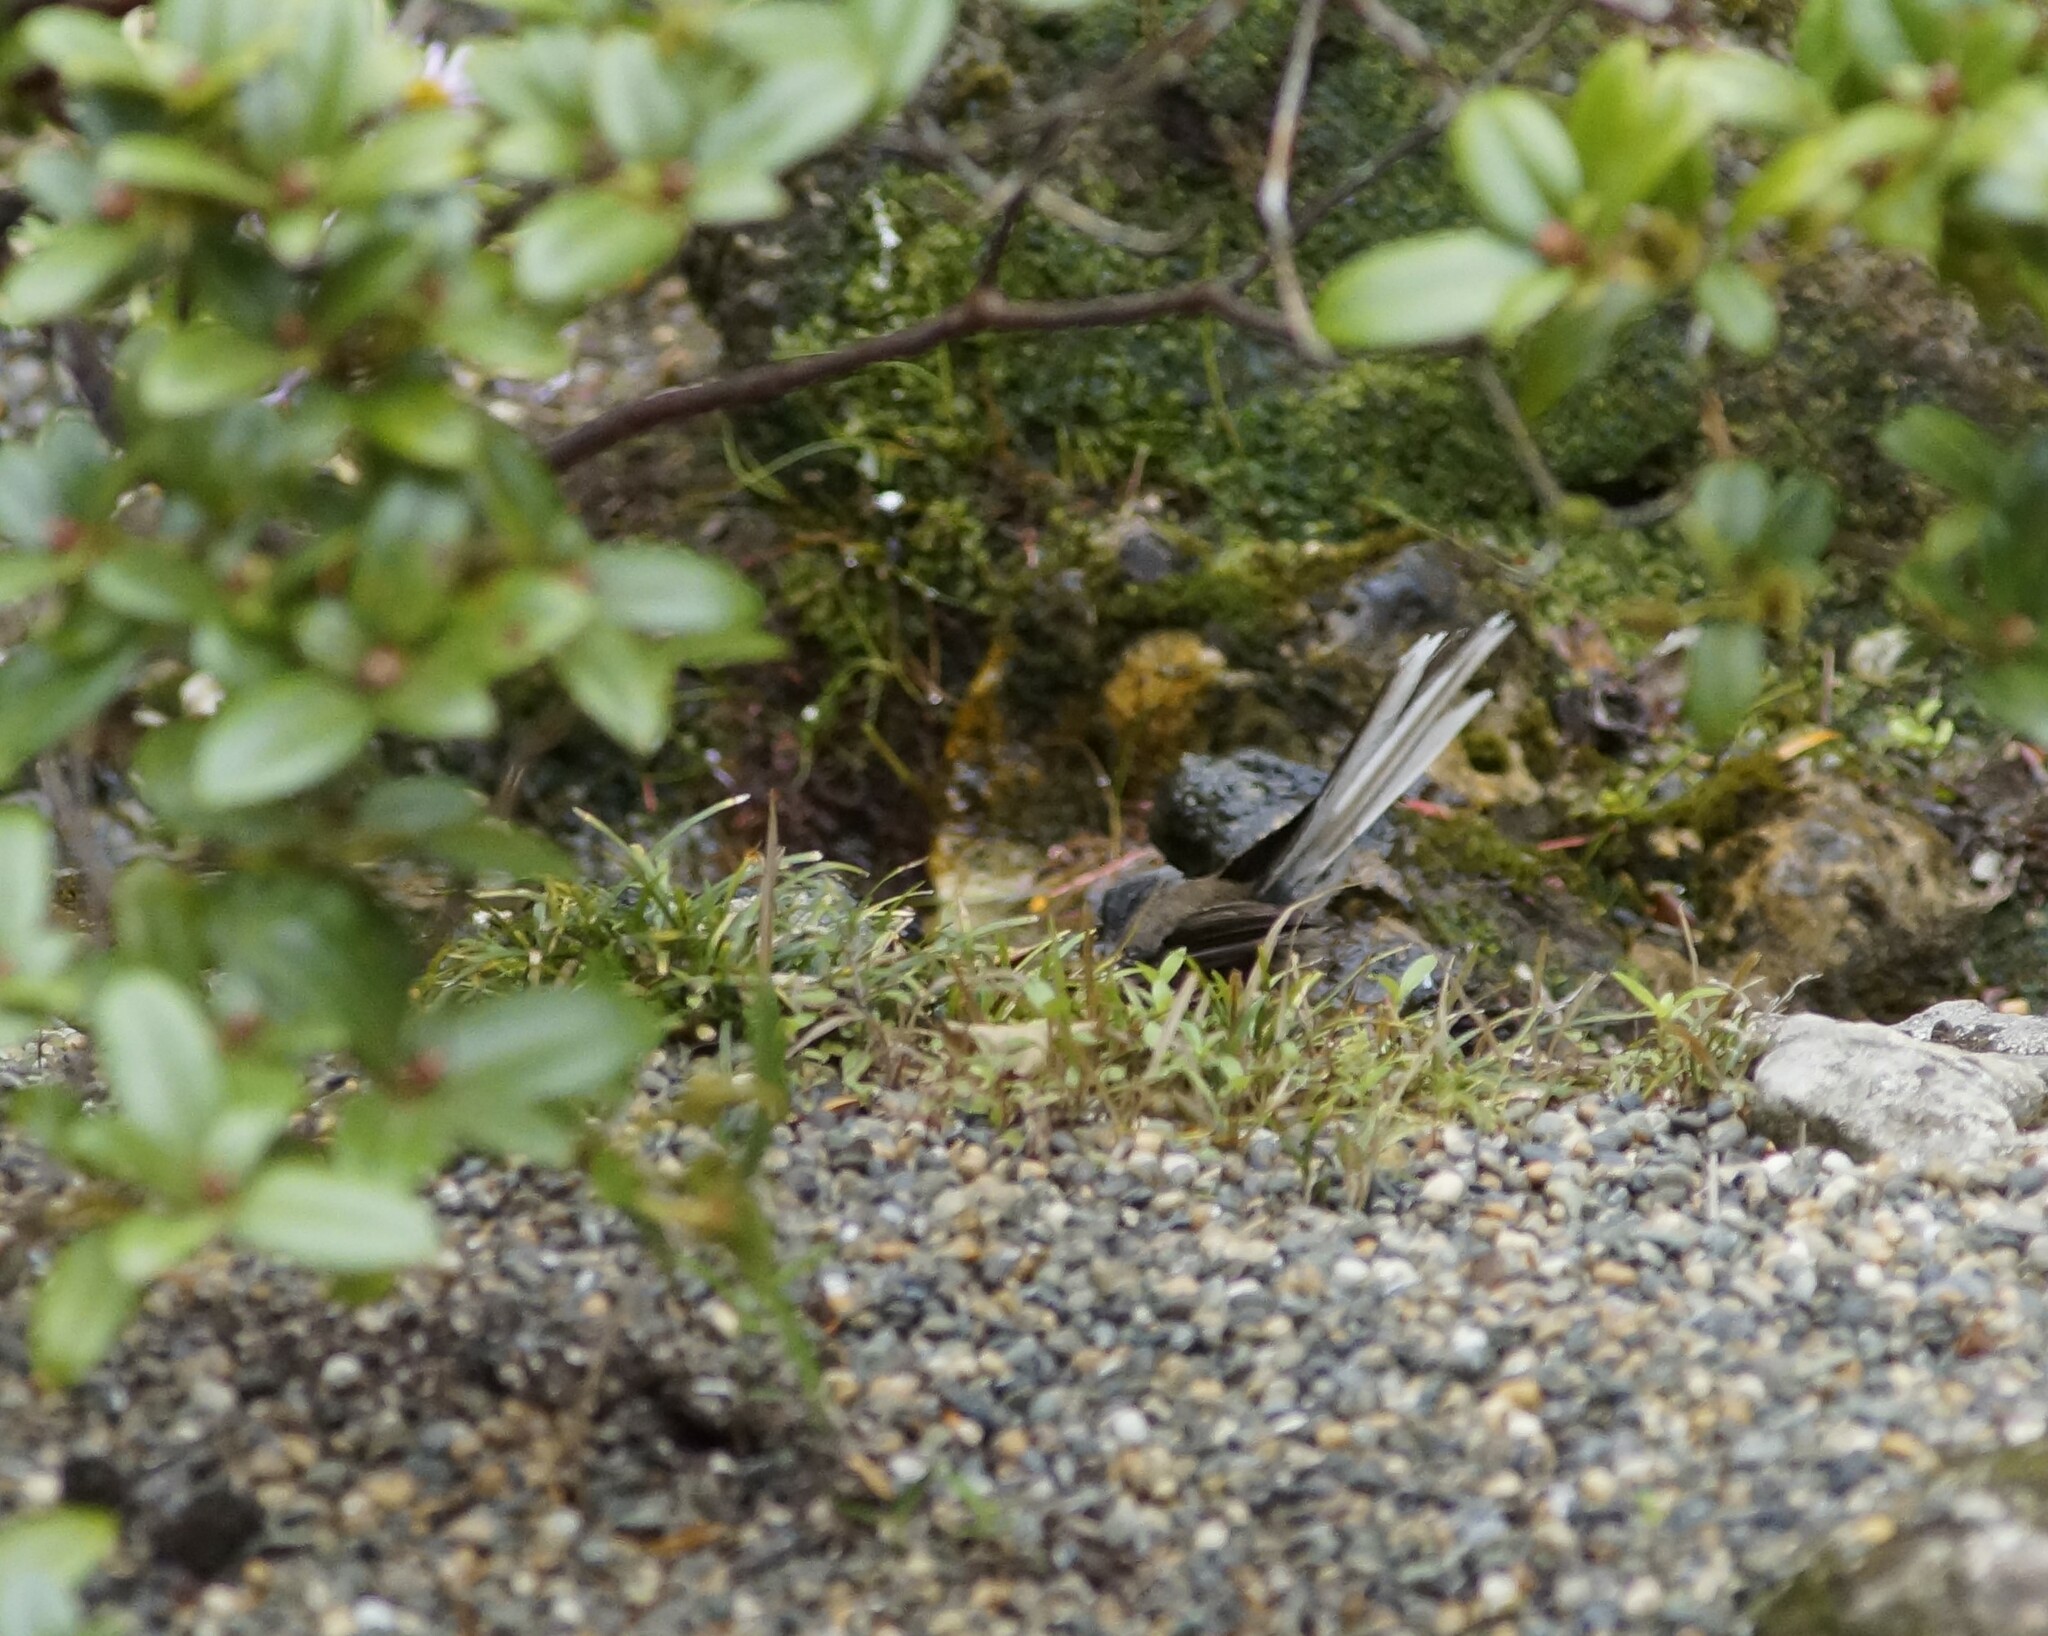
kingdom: Animalia
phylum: Chordata
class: Aves
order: Passeriformes
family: Rhipiduridae
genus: Rhipidura
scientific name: Rhipidura fuliginosa
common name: New zealand fantail
